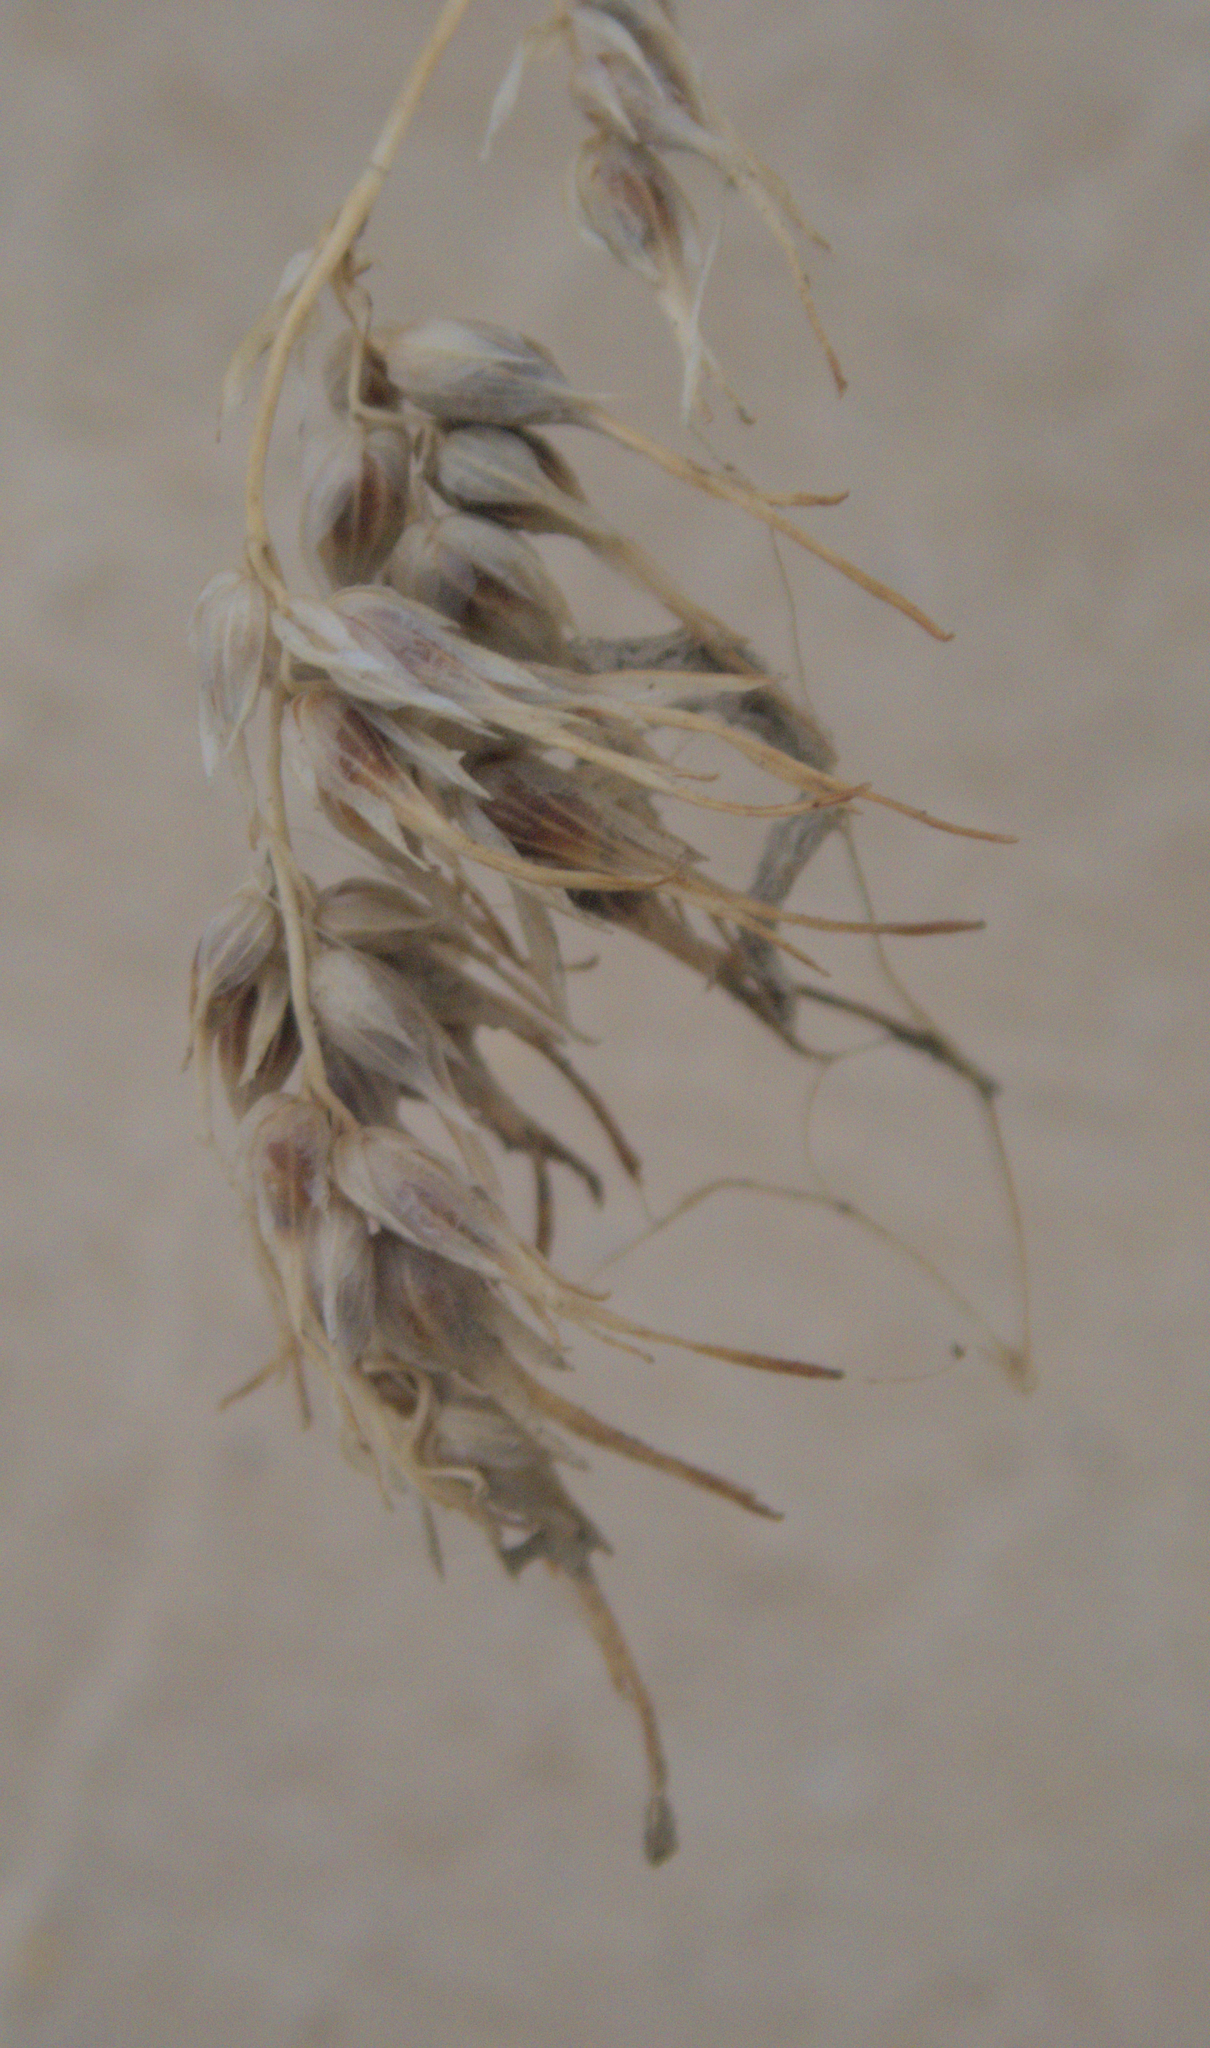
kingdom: Plantae
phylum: Tracheophyta
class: Liliopsida
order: Poales
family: Poaceae
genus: Poa
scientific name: Poa bulbosa
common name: Bulbous bluegrass
